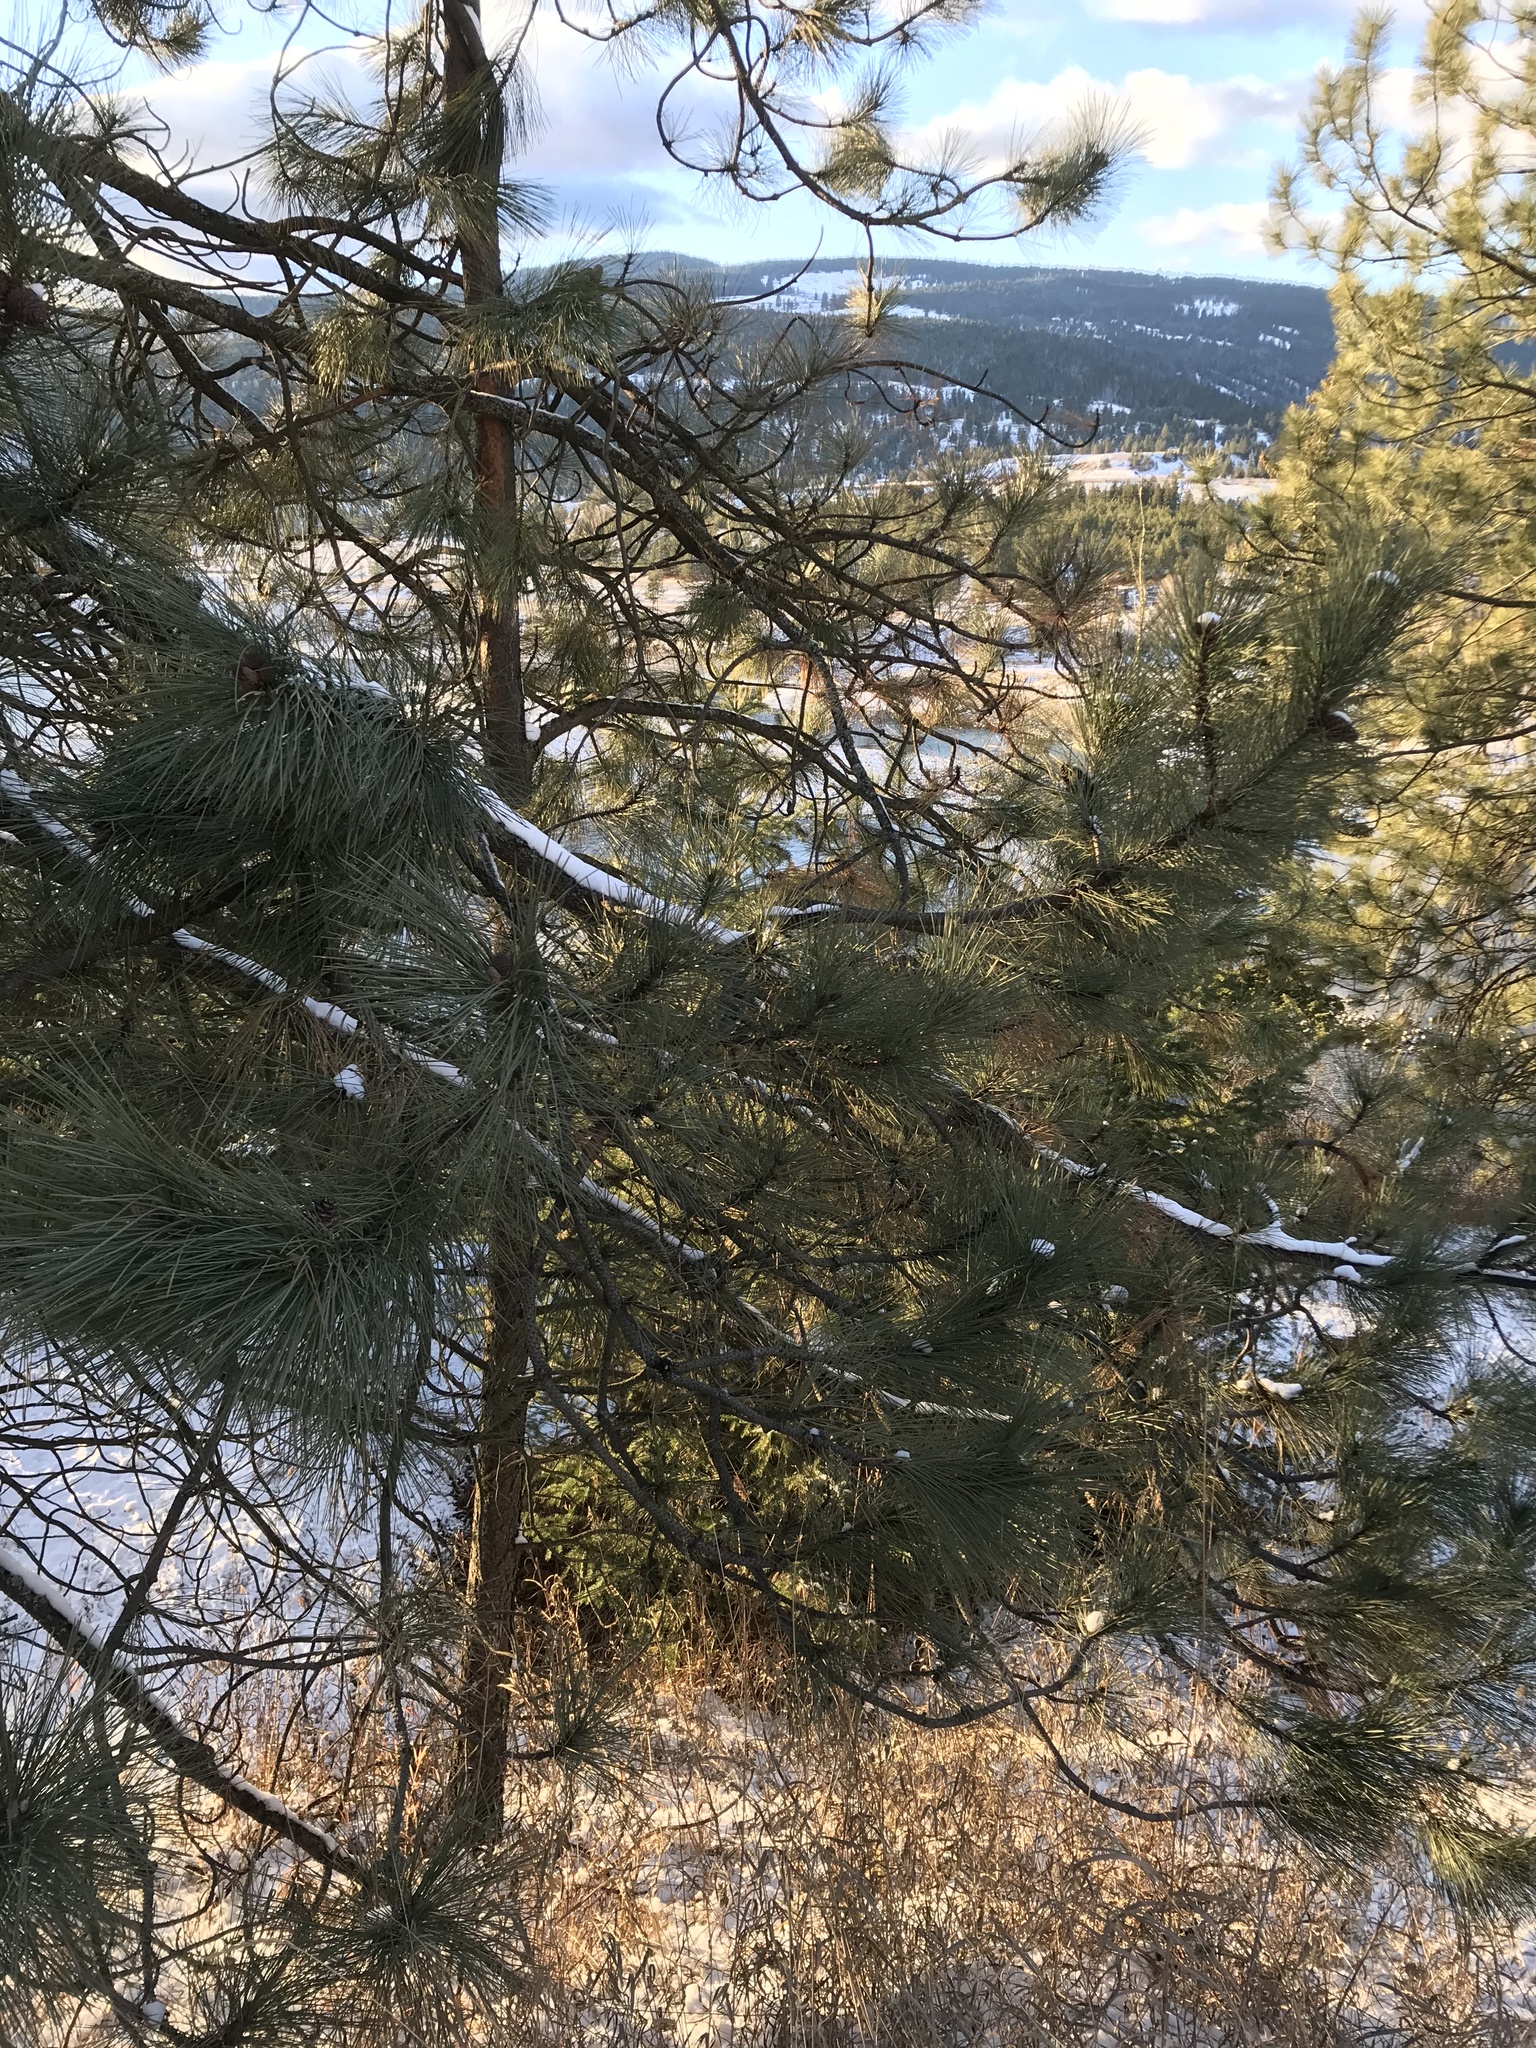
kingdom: Plantae
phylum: Tracheophyta
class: Pinopsida
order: Pinales
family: Pinaceae
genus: Pinus
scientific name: Pinus ponderosa
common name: Western yellow-pine
